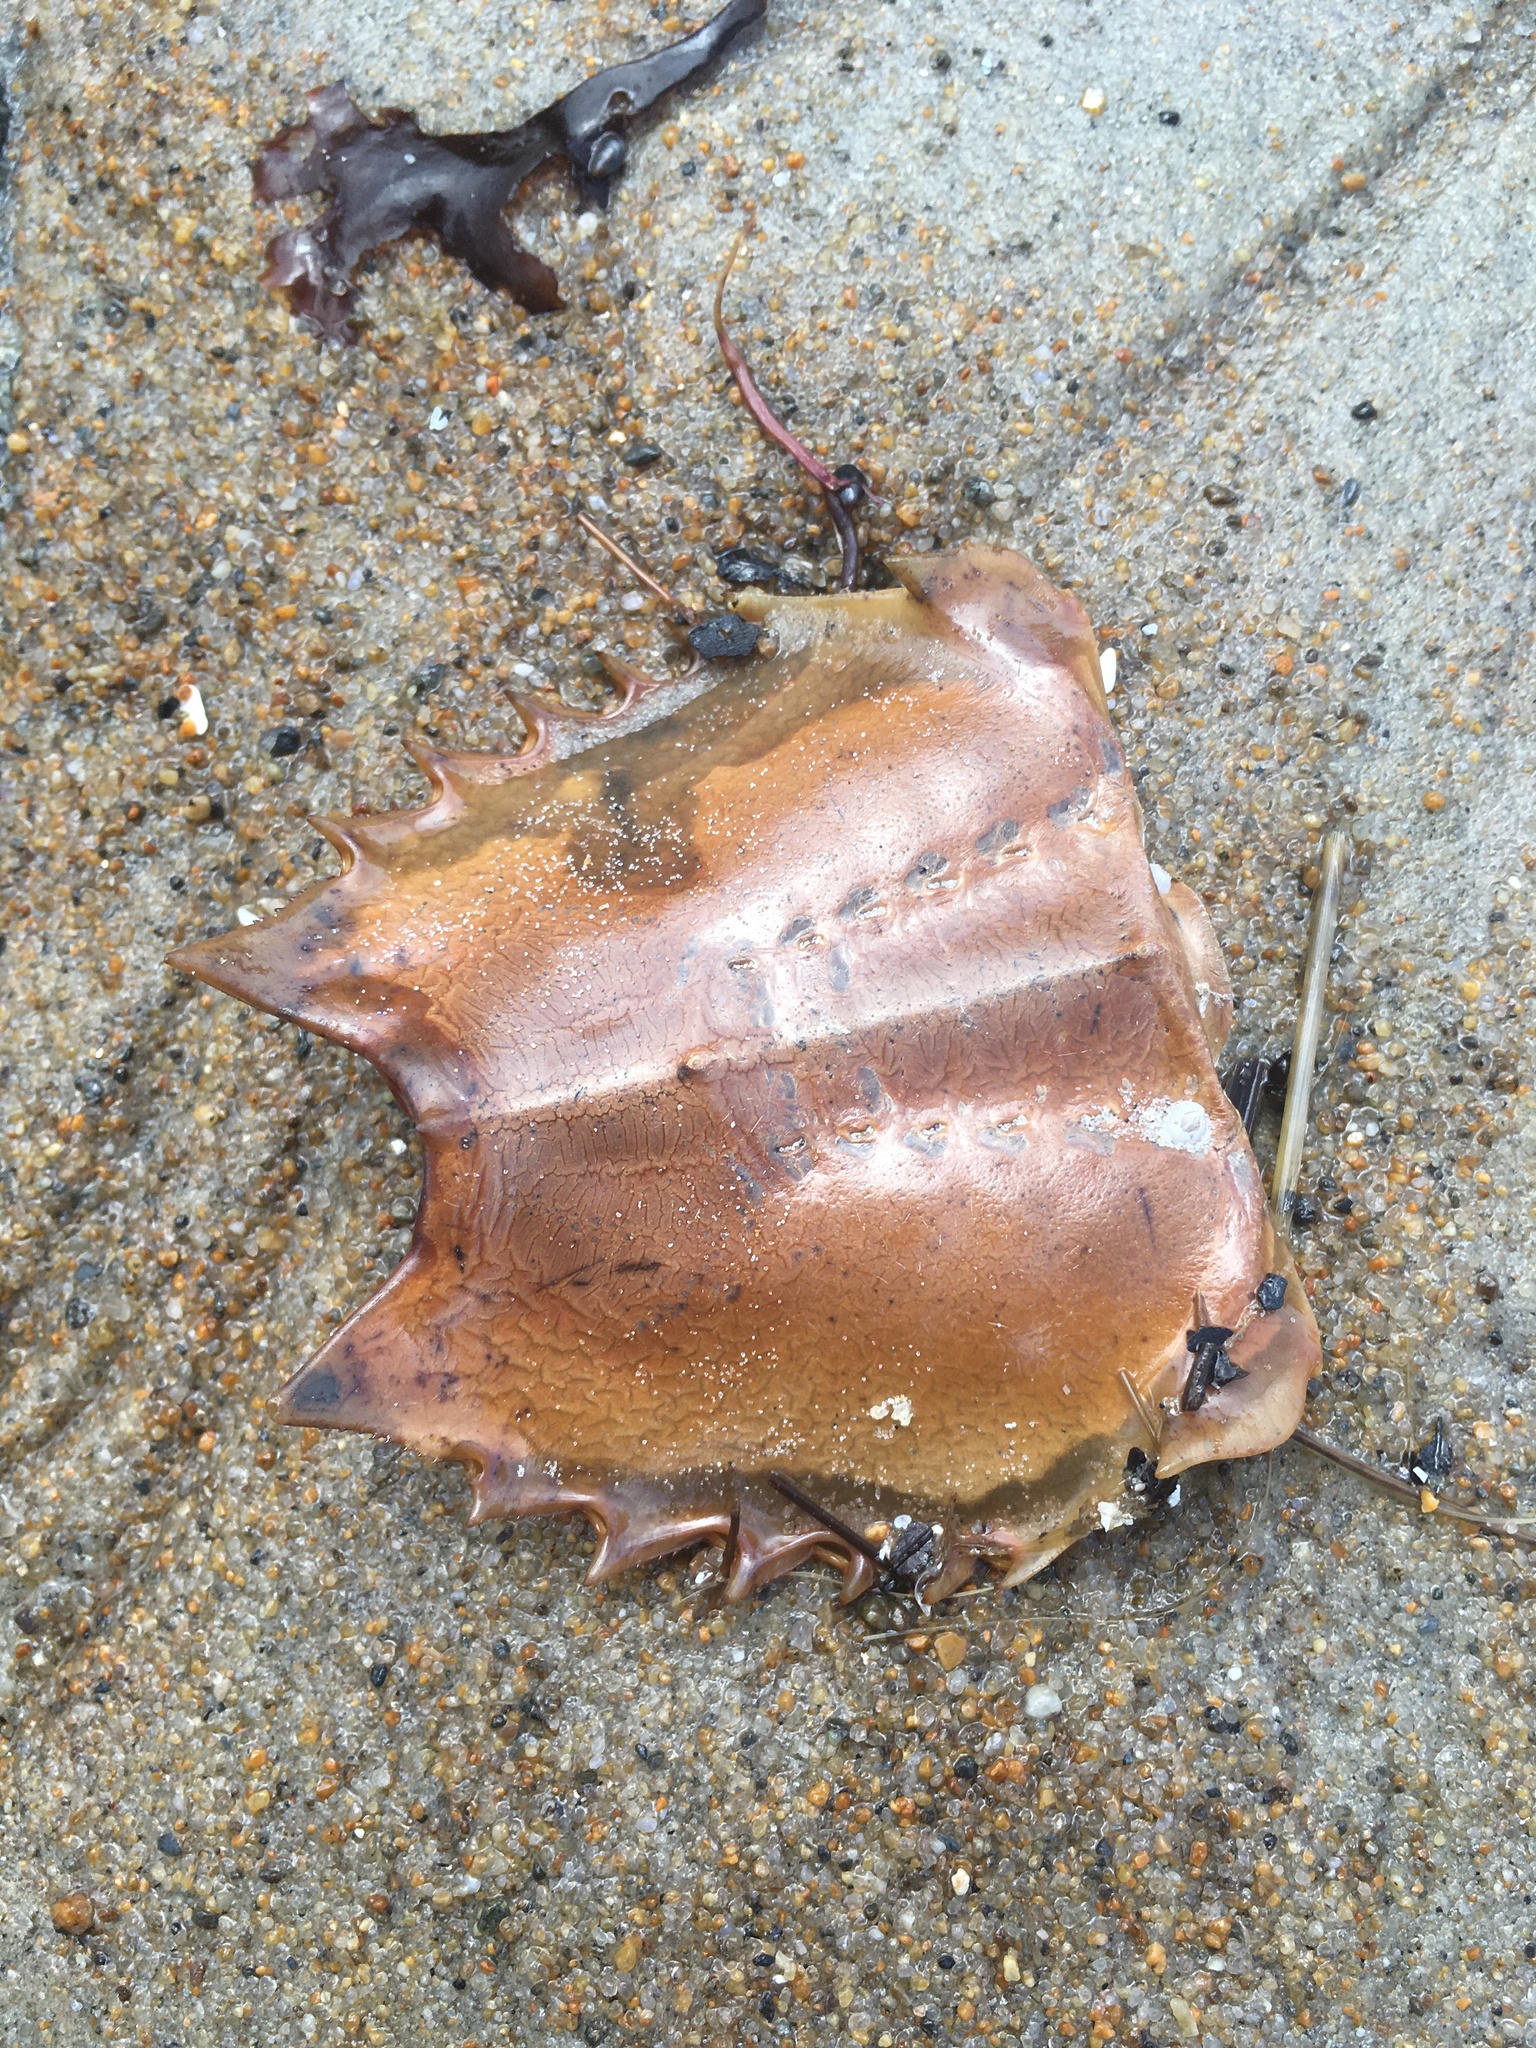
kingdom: Animalia
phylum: Arthropoda
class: Merostomata
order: Xiphosurida
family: Limulidae
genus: Limulus
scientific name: Limulus polyphemus
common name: Horseshoe crab
